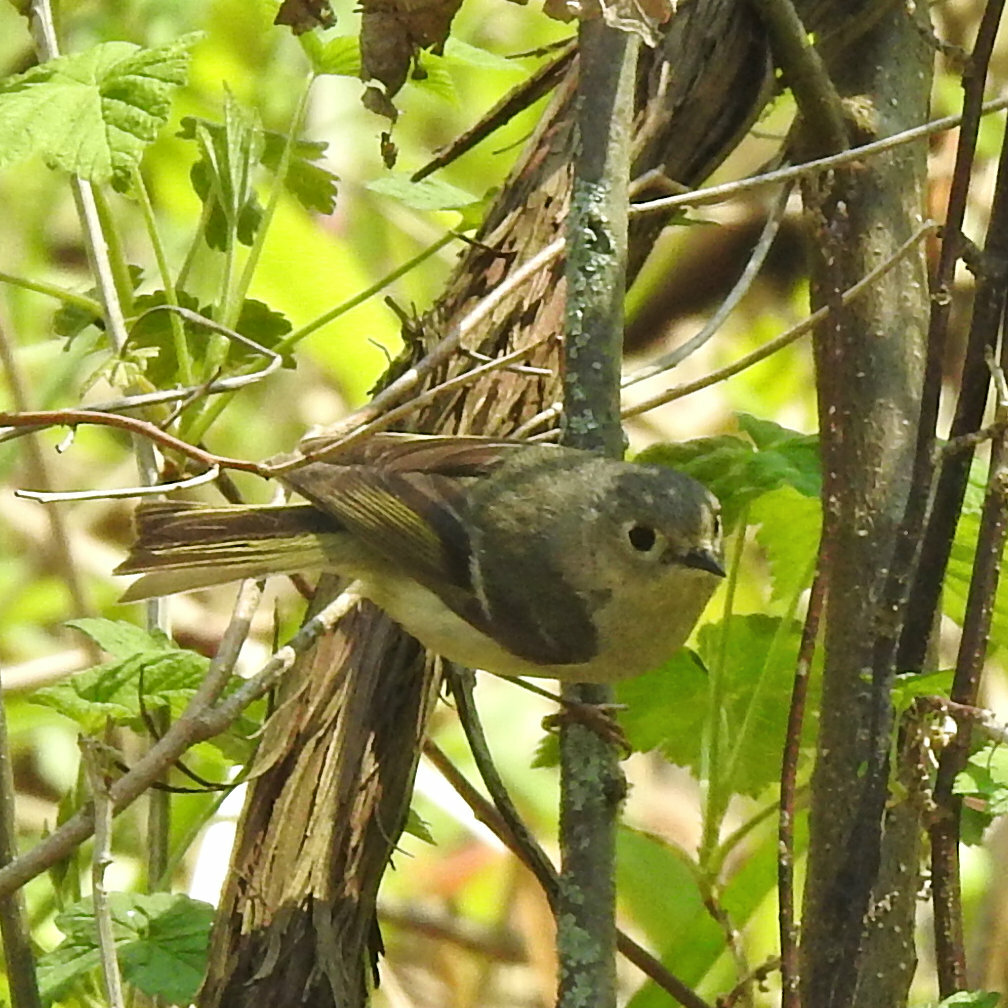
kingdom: Animalia
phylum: Chordata
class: Aves
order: Passeriformes
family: Regulidae
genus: Regulus
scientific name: Regulus calendula
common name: Ruby-crowned kinglet
